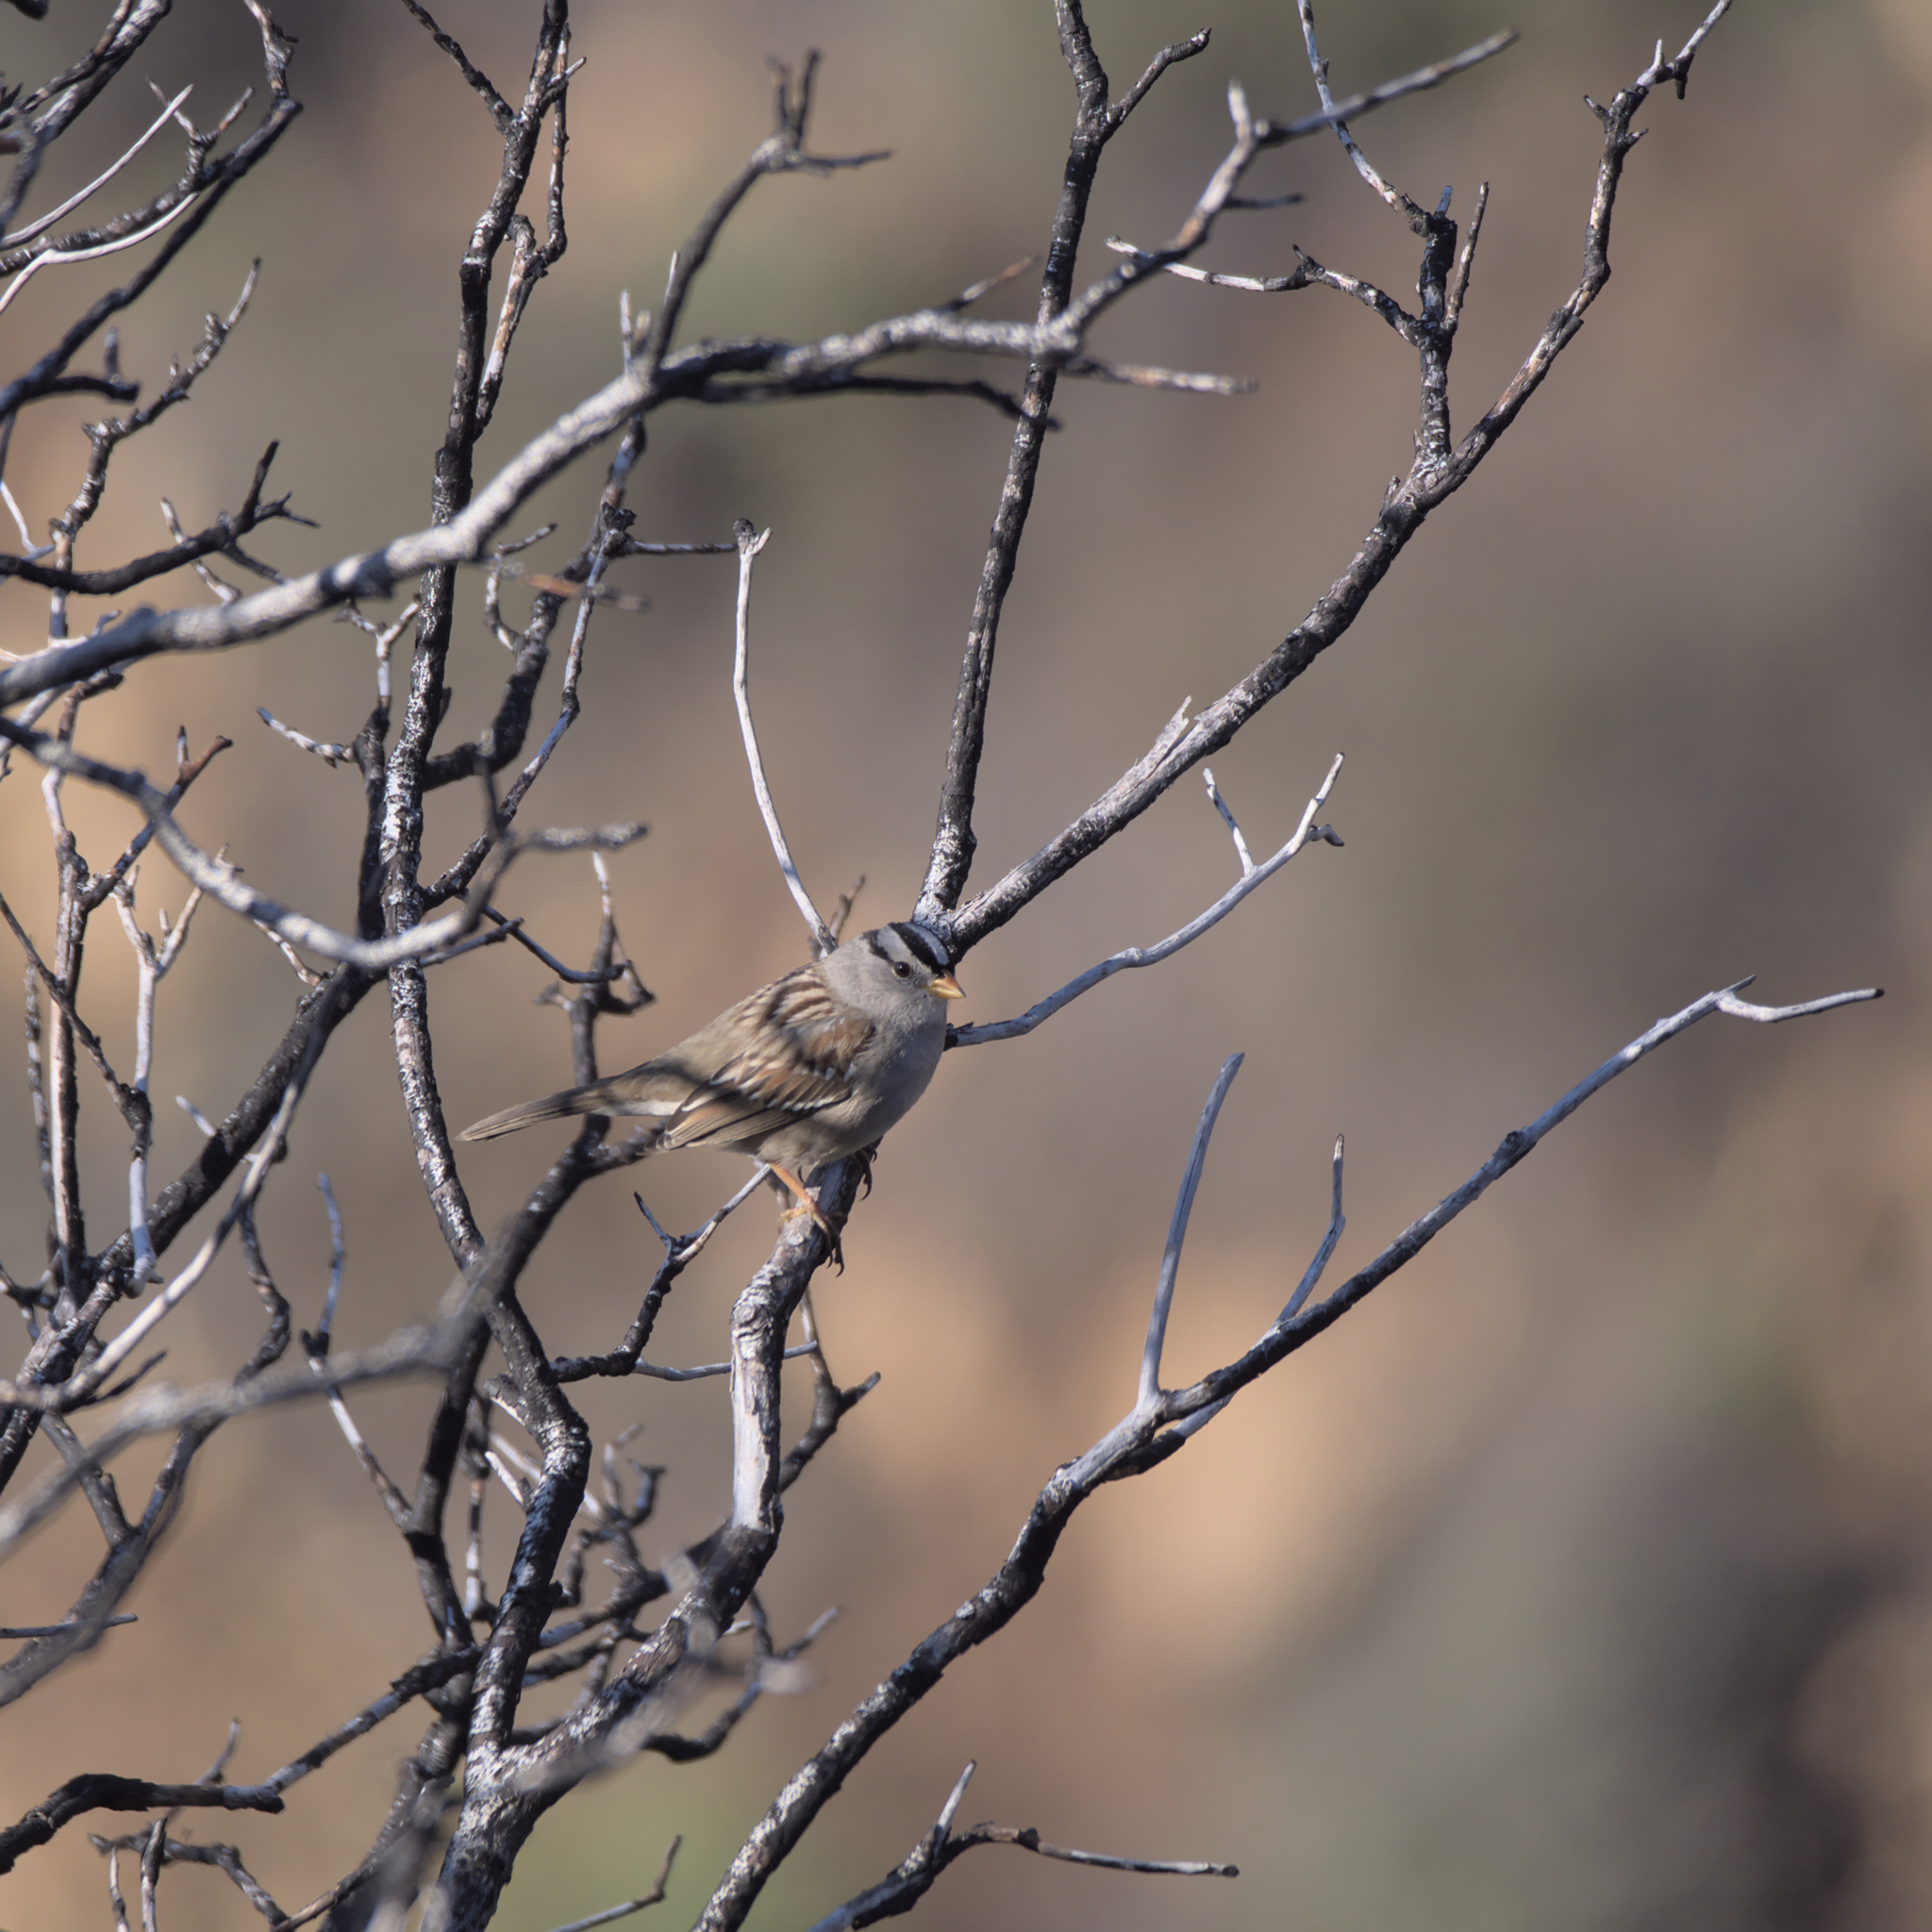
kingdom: Animalia
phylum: Chordata
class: Aves
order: Passeriformes
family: Passerellidae
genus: Zonotrichia
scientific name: Zonotrichia leucophrys
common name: White-crowned sparrow
